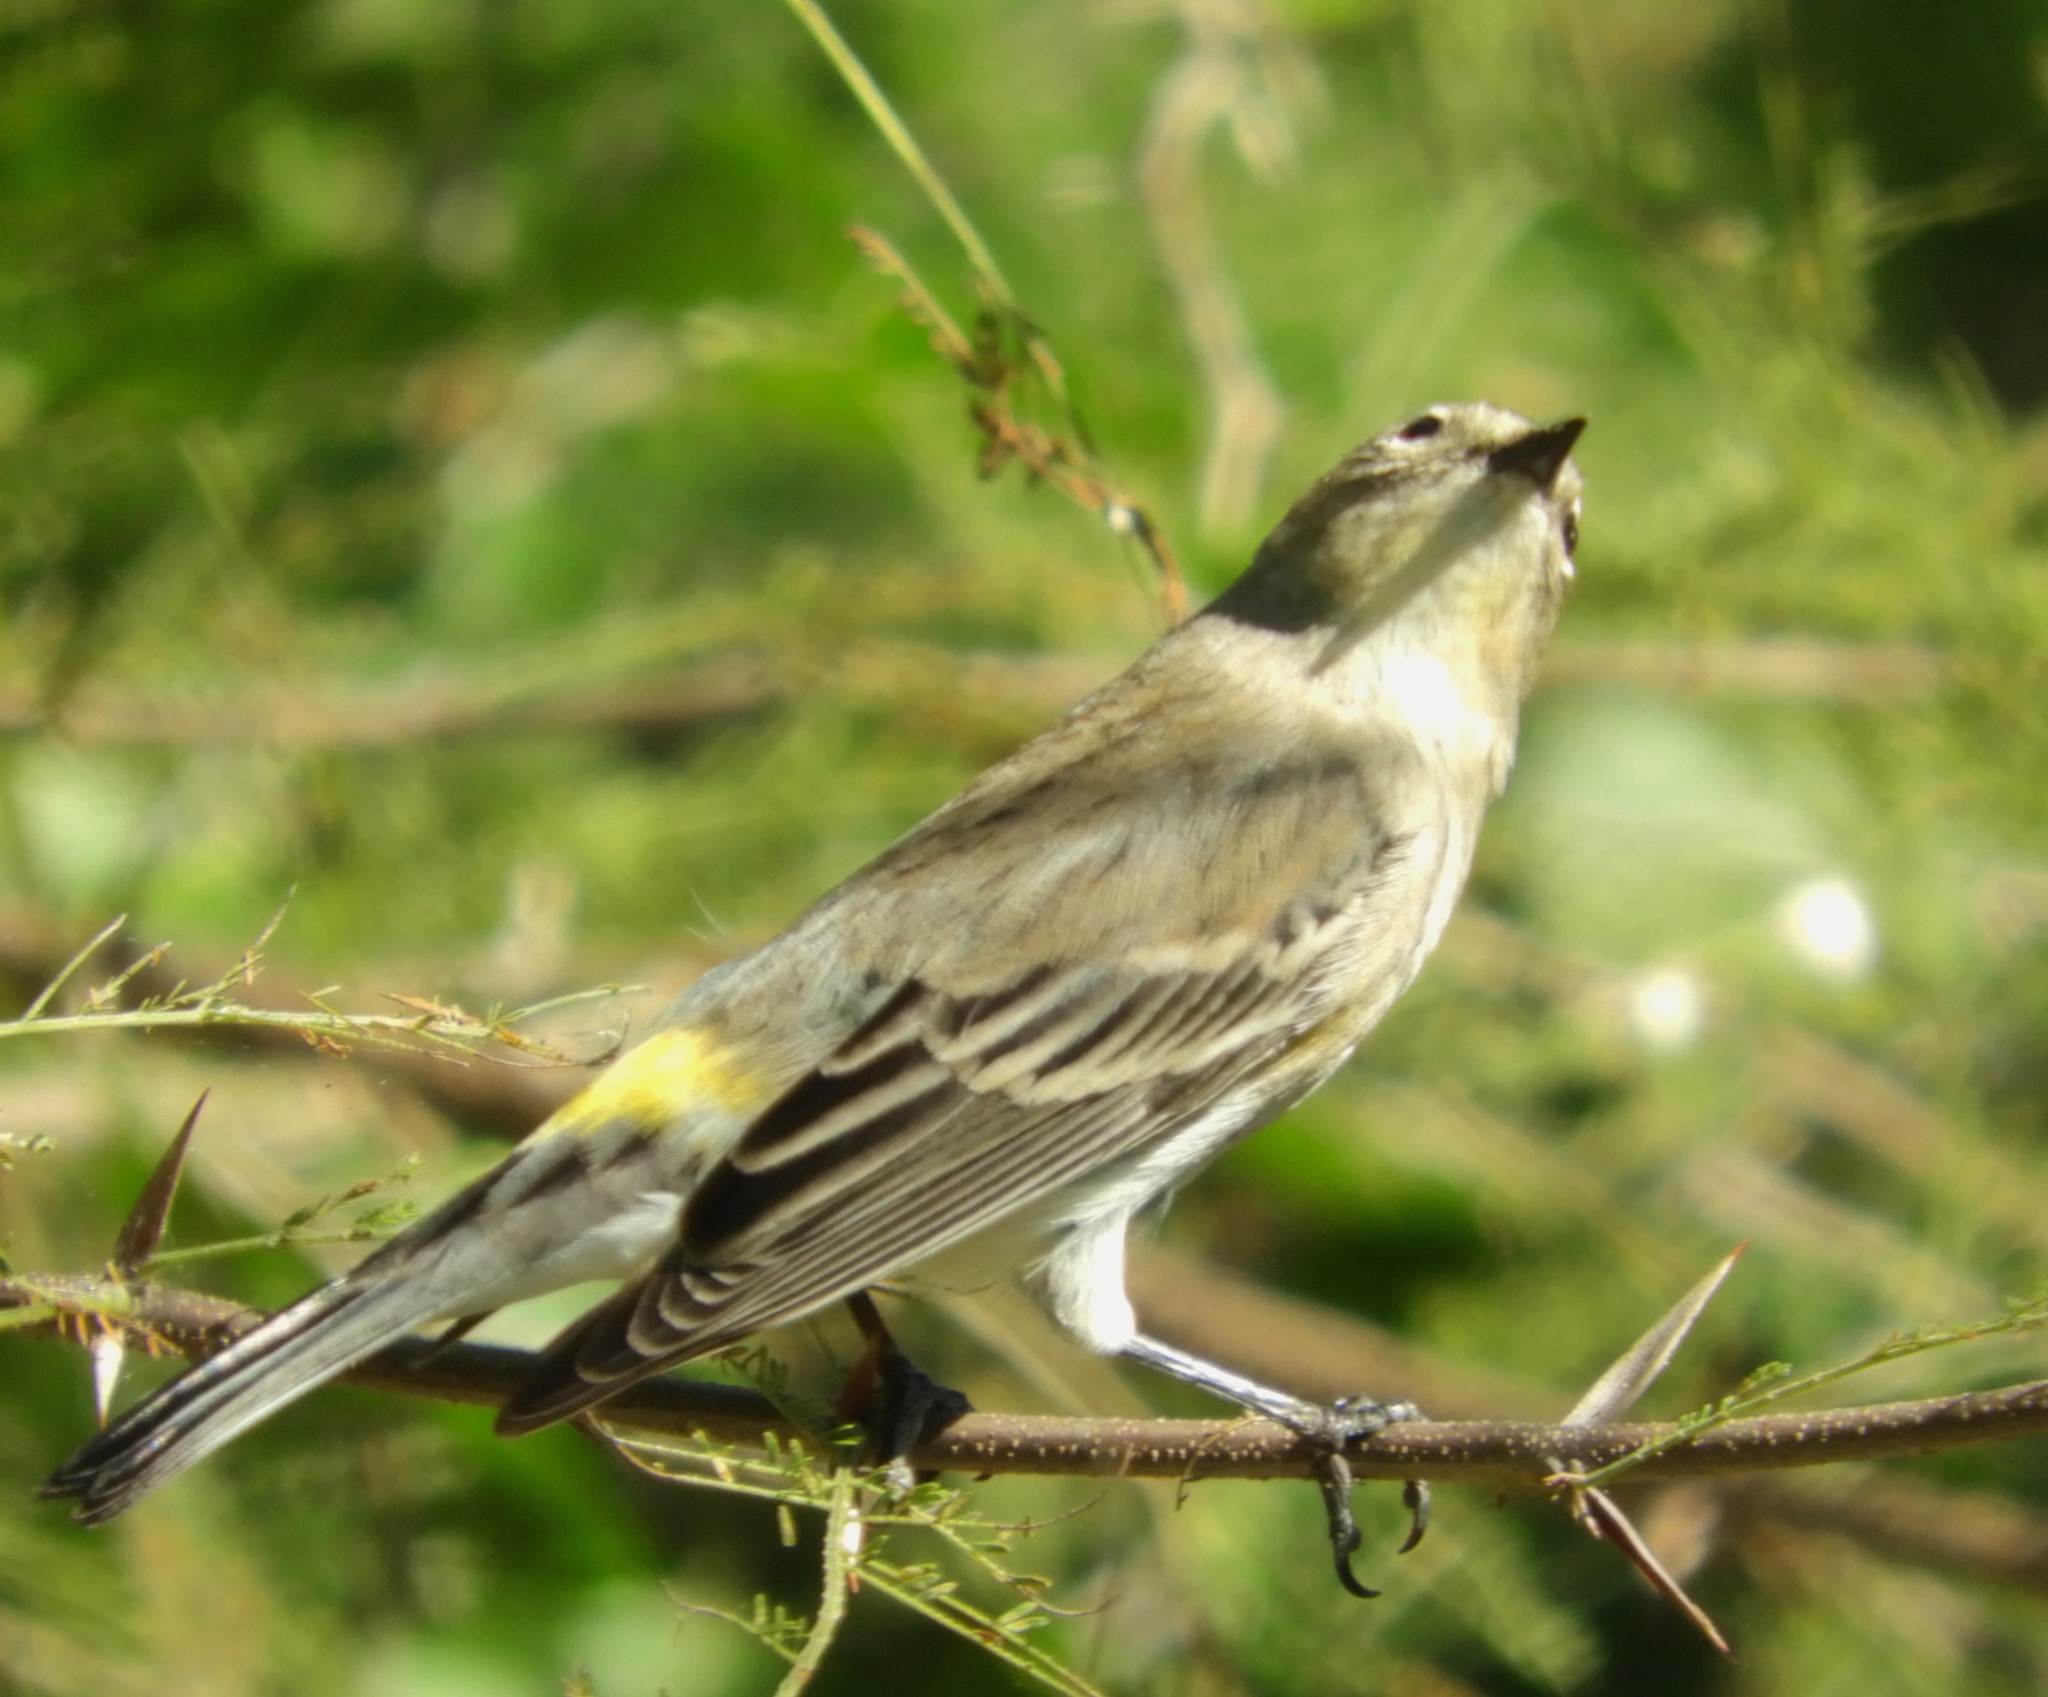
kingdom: Animalia
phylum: Chordata
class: Aves
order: Passeriformes
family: Parulidae
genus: Setophaga
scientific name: Setophaga auduboni
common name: Audubon's warbler
